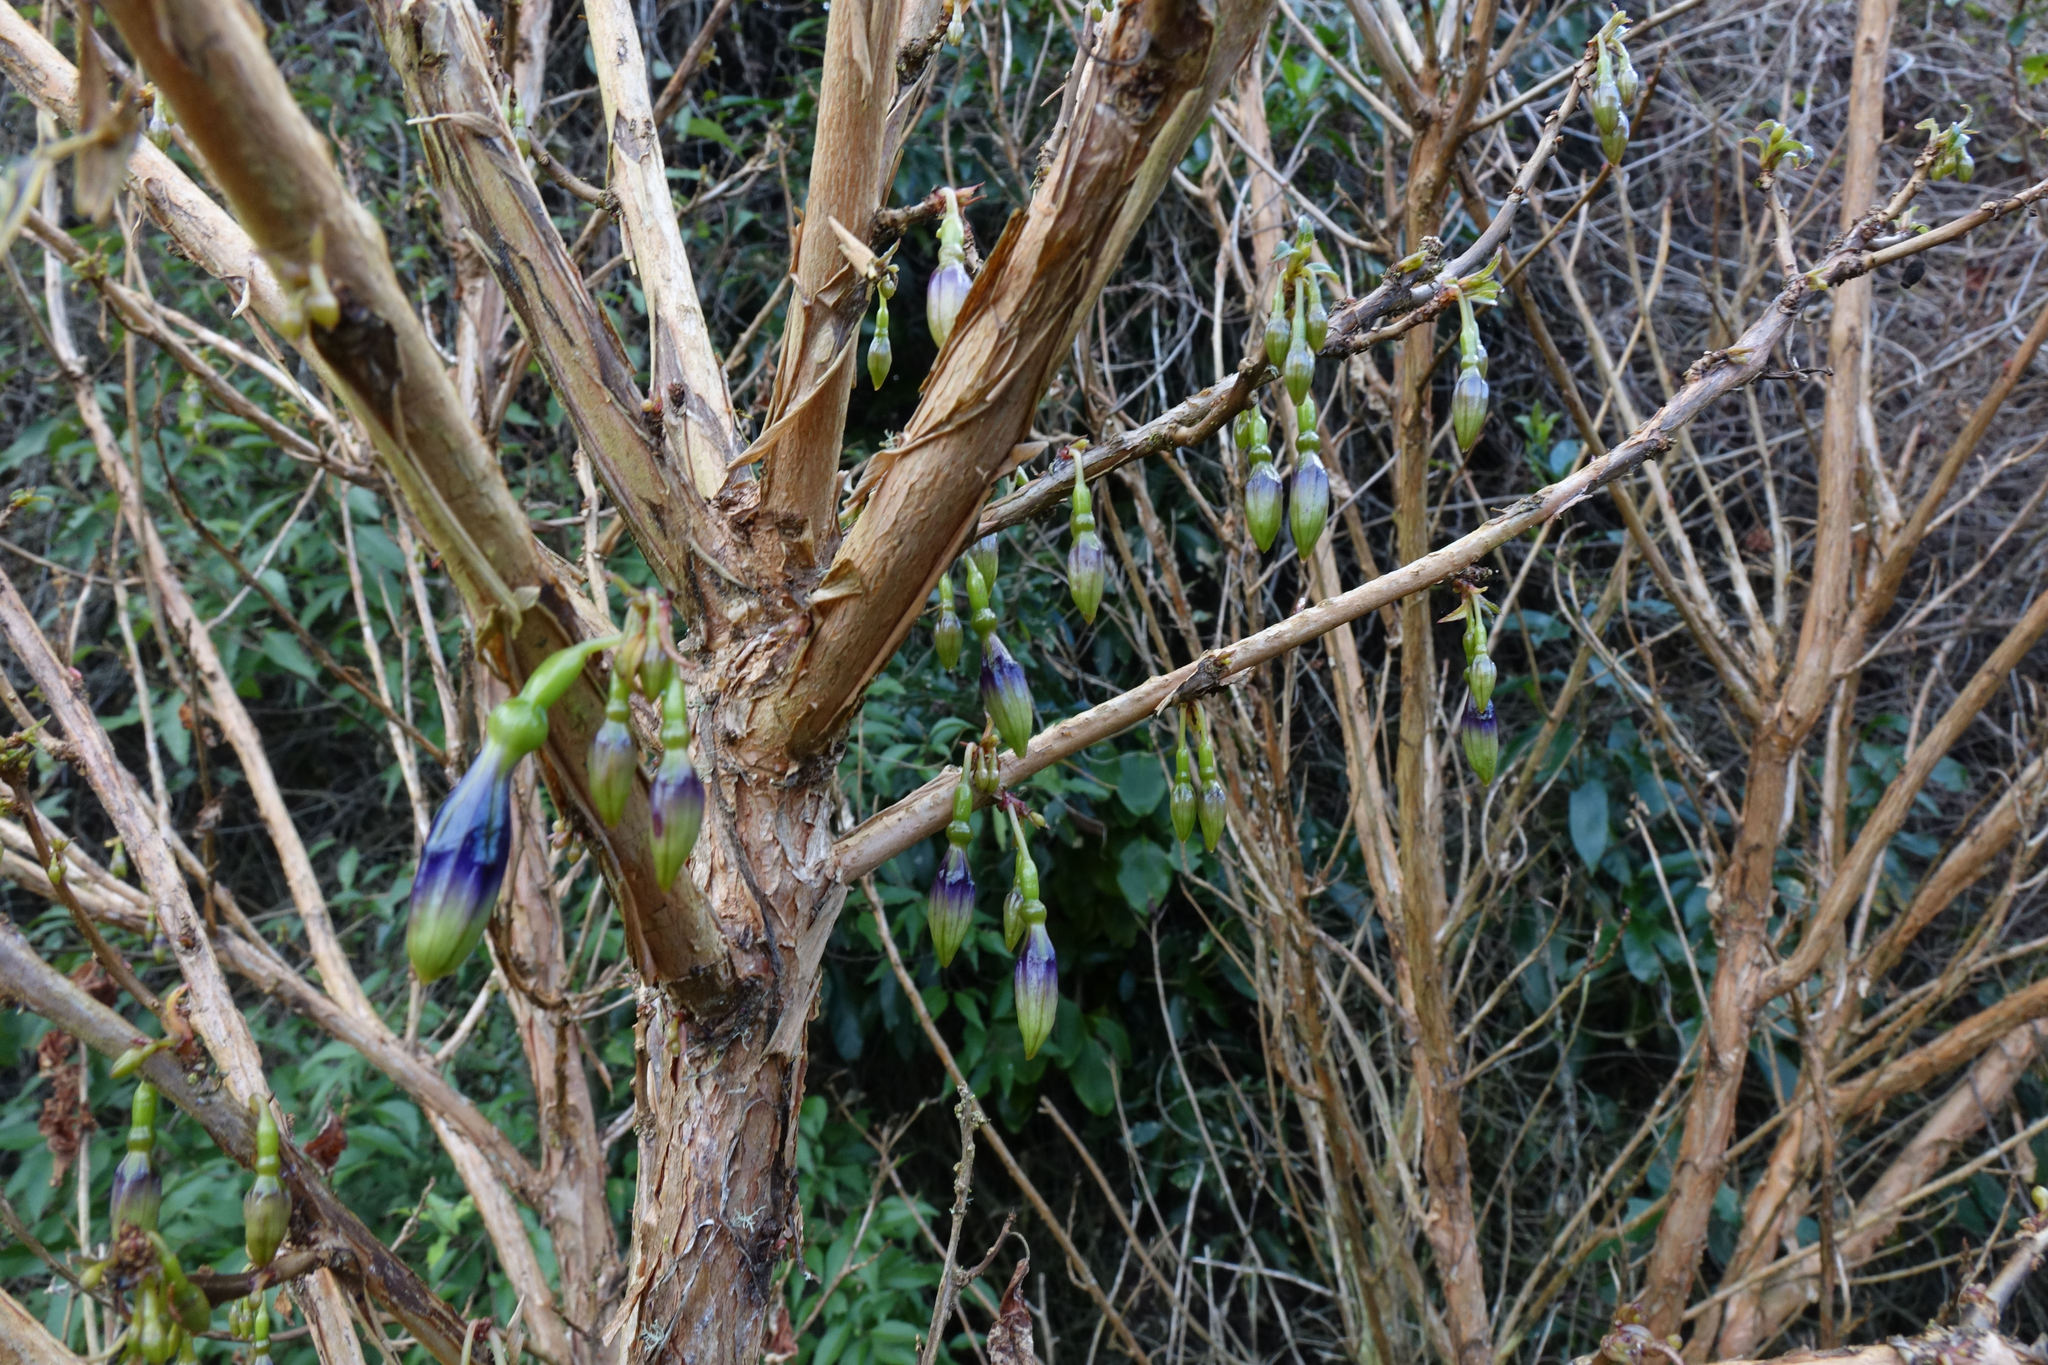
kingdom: Plantae
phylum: Tracheophyta
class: Magnoliopsida
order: Myrtales
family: Onagraceae
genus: Fuchsia
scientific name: Fuchsia excorticata
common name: Tree fuchsia
